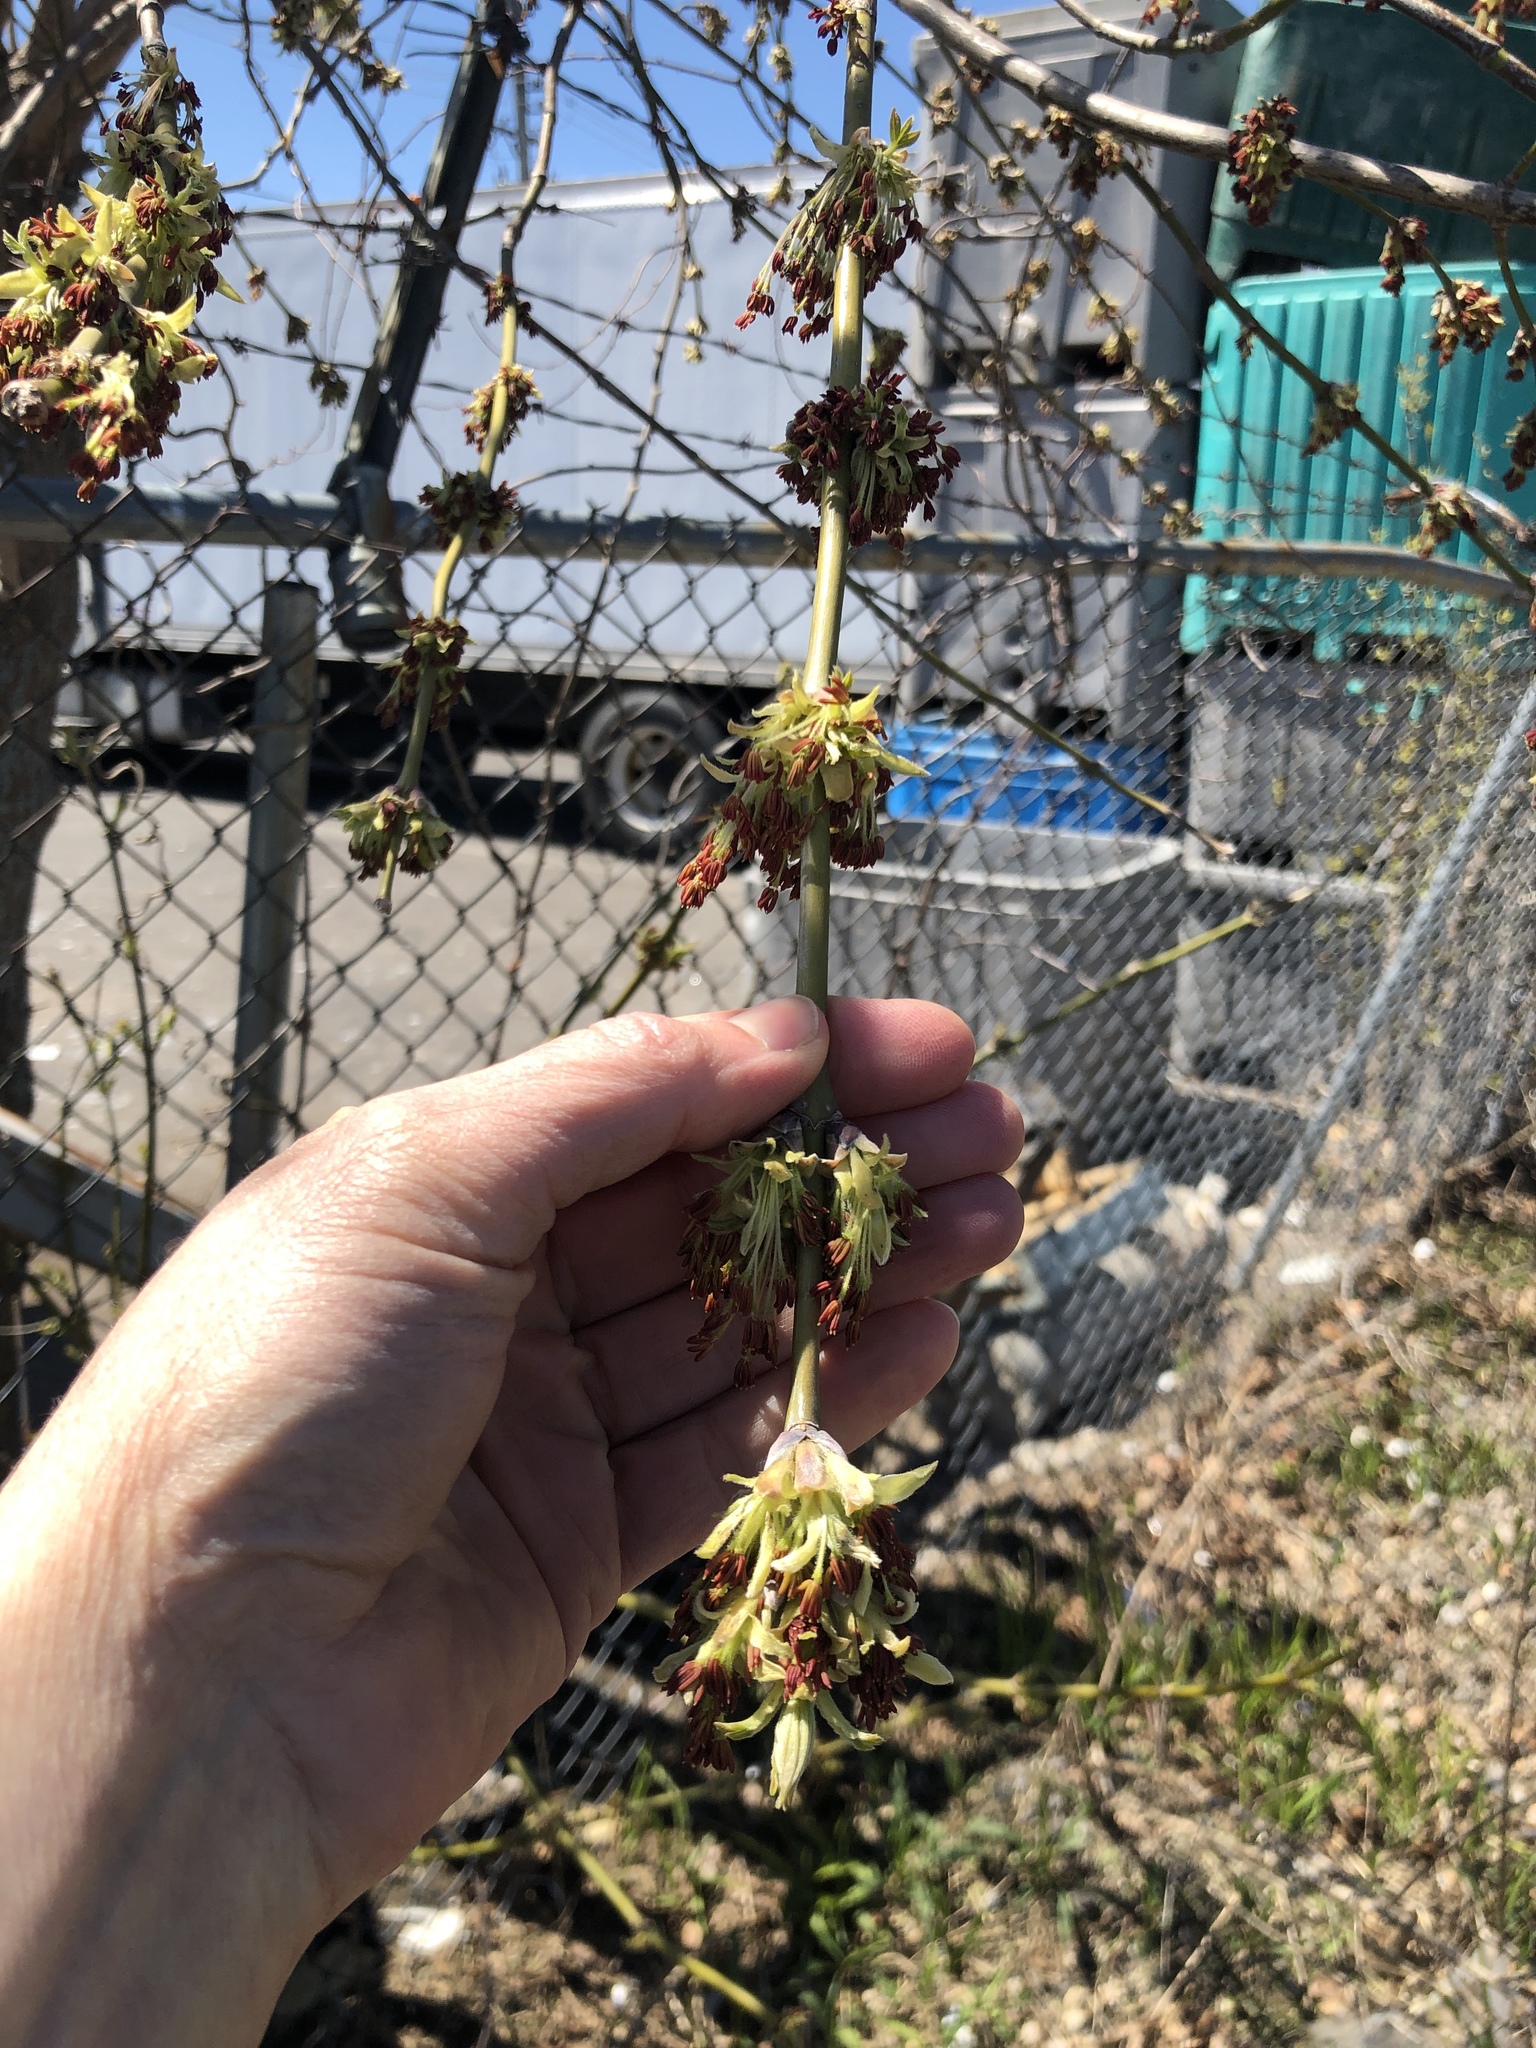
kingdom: Plantae
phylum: Tracheophyta
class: Magnoliopsida
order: Sapindales
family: Sapindaceae
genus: Acer
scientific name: Acer negundo
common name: Ashleaf maple
